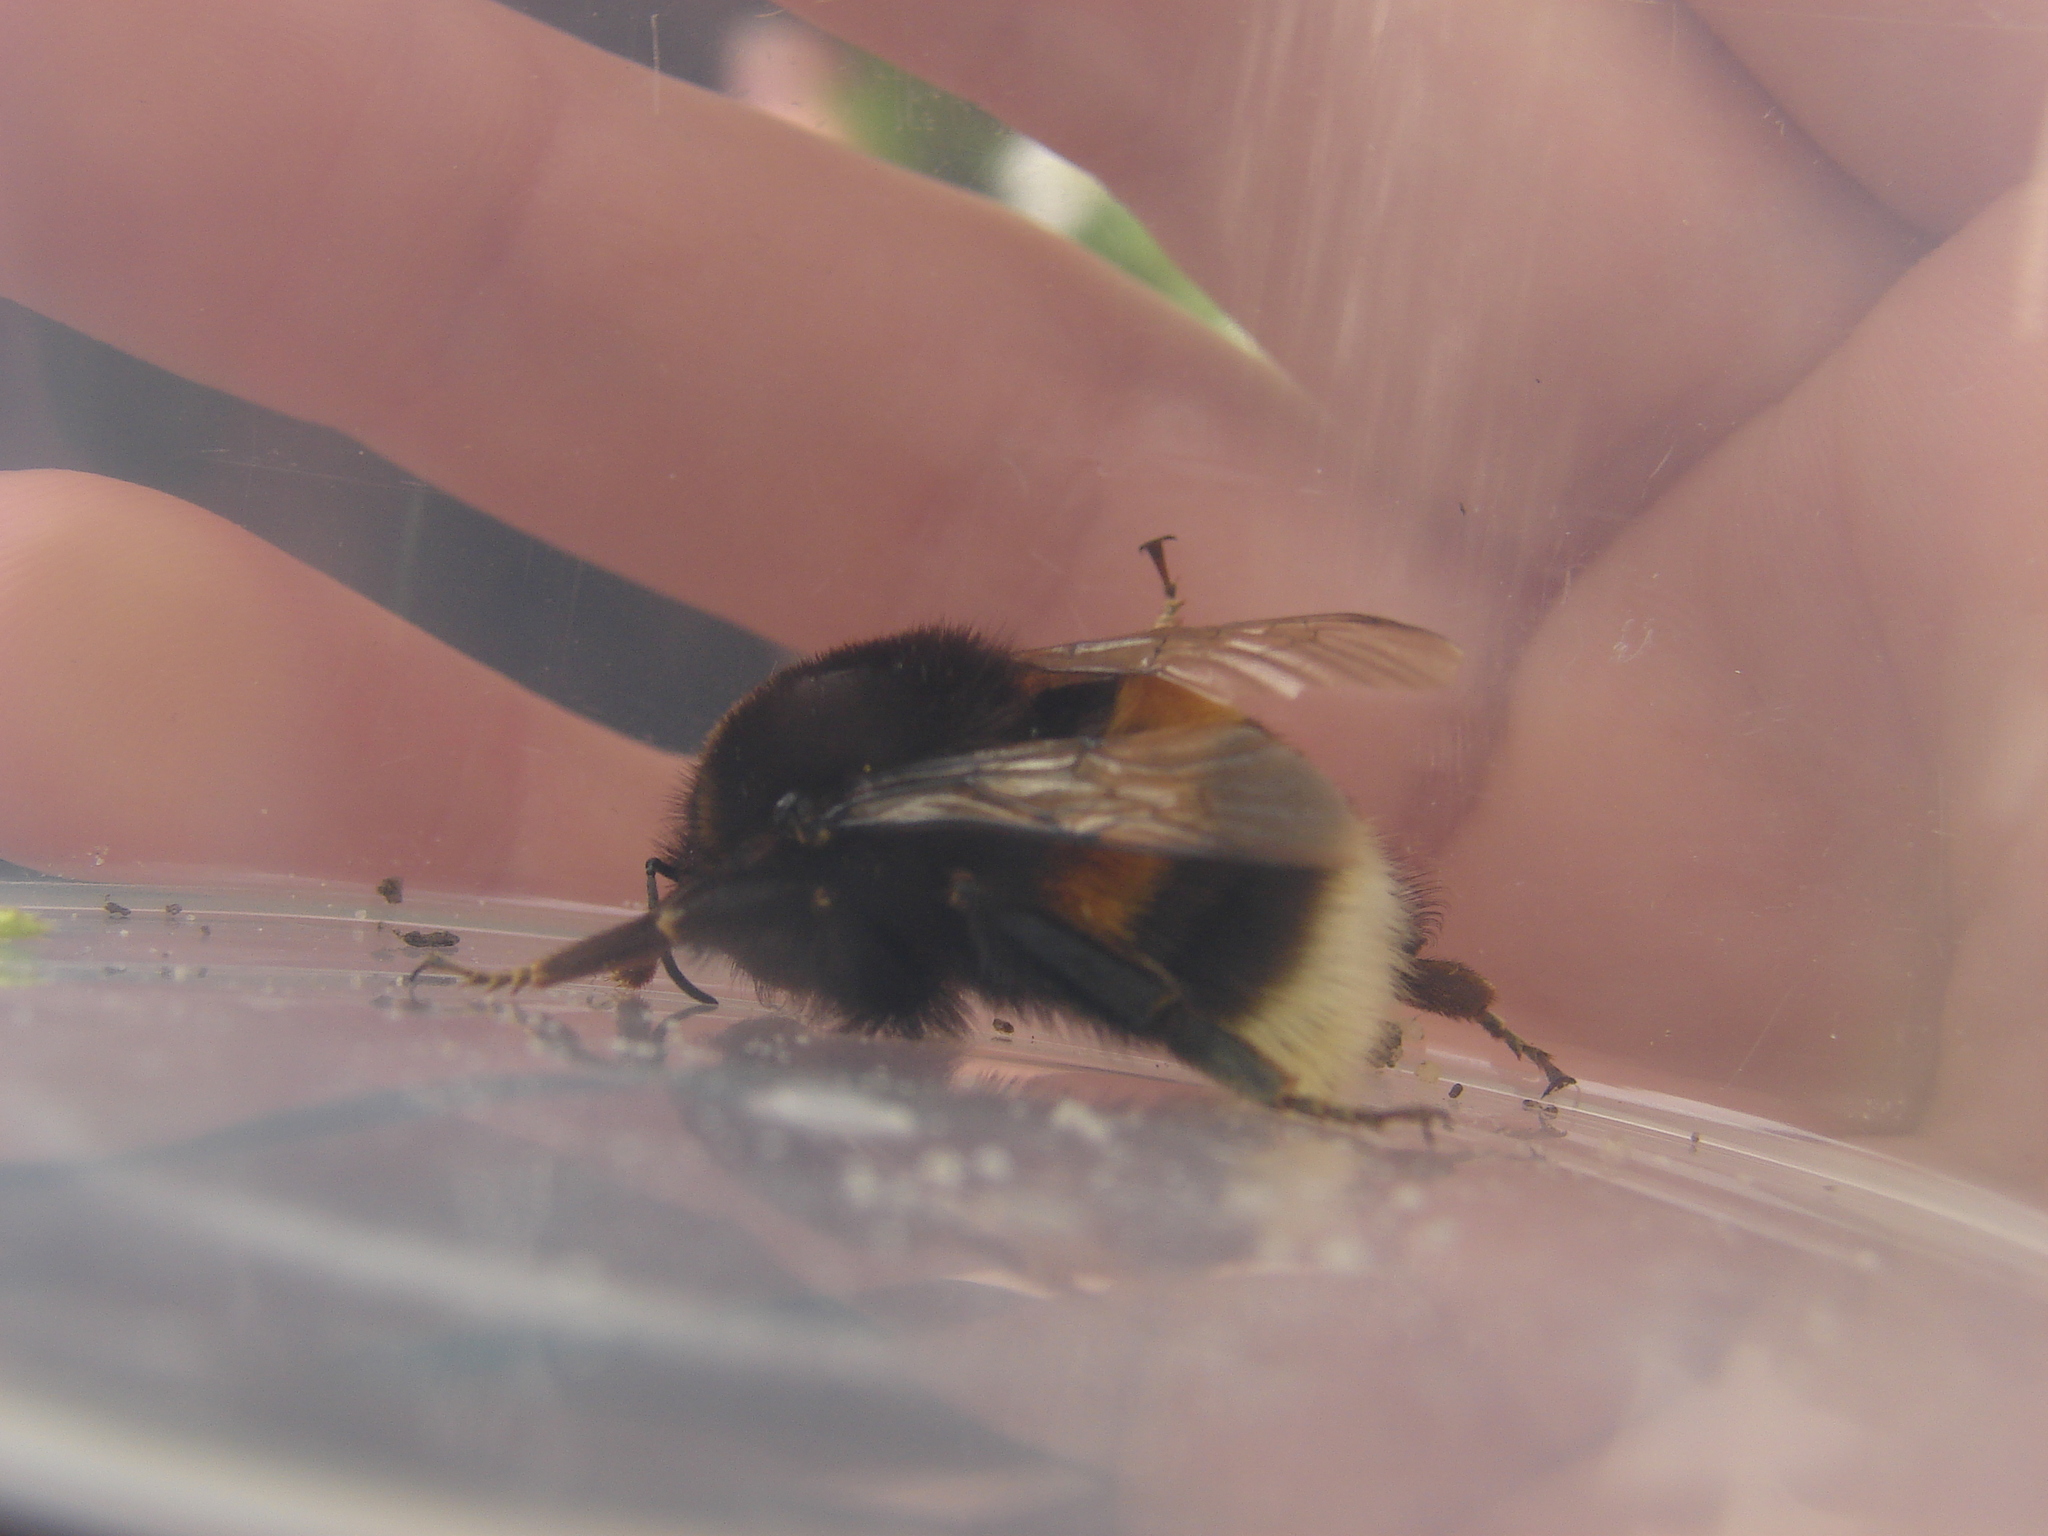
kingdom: Animalia
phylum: Arthropoda
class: Insecta
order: Hymenoptera
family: Apidae
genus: Bombus
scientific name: Bombus terrestris
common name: Buff-tailed bumblebee
